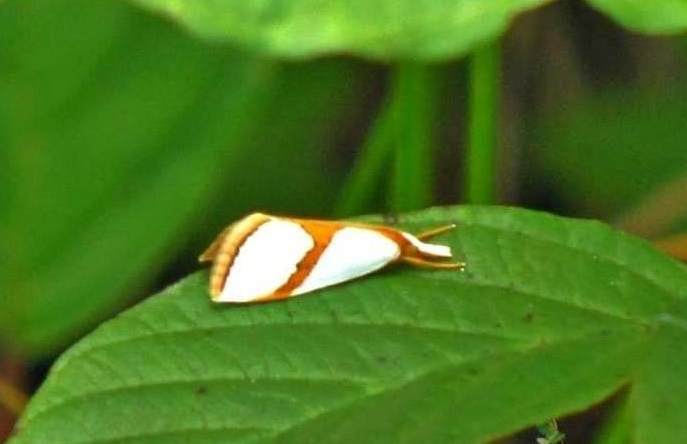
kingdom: Animalia
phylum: Arthropoda
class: Insecta
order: Lepidoptera
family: Crambidae
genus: Argyria
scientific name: Argyria auratella
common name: Curve-lined argyria moth
